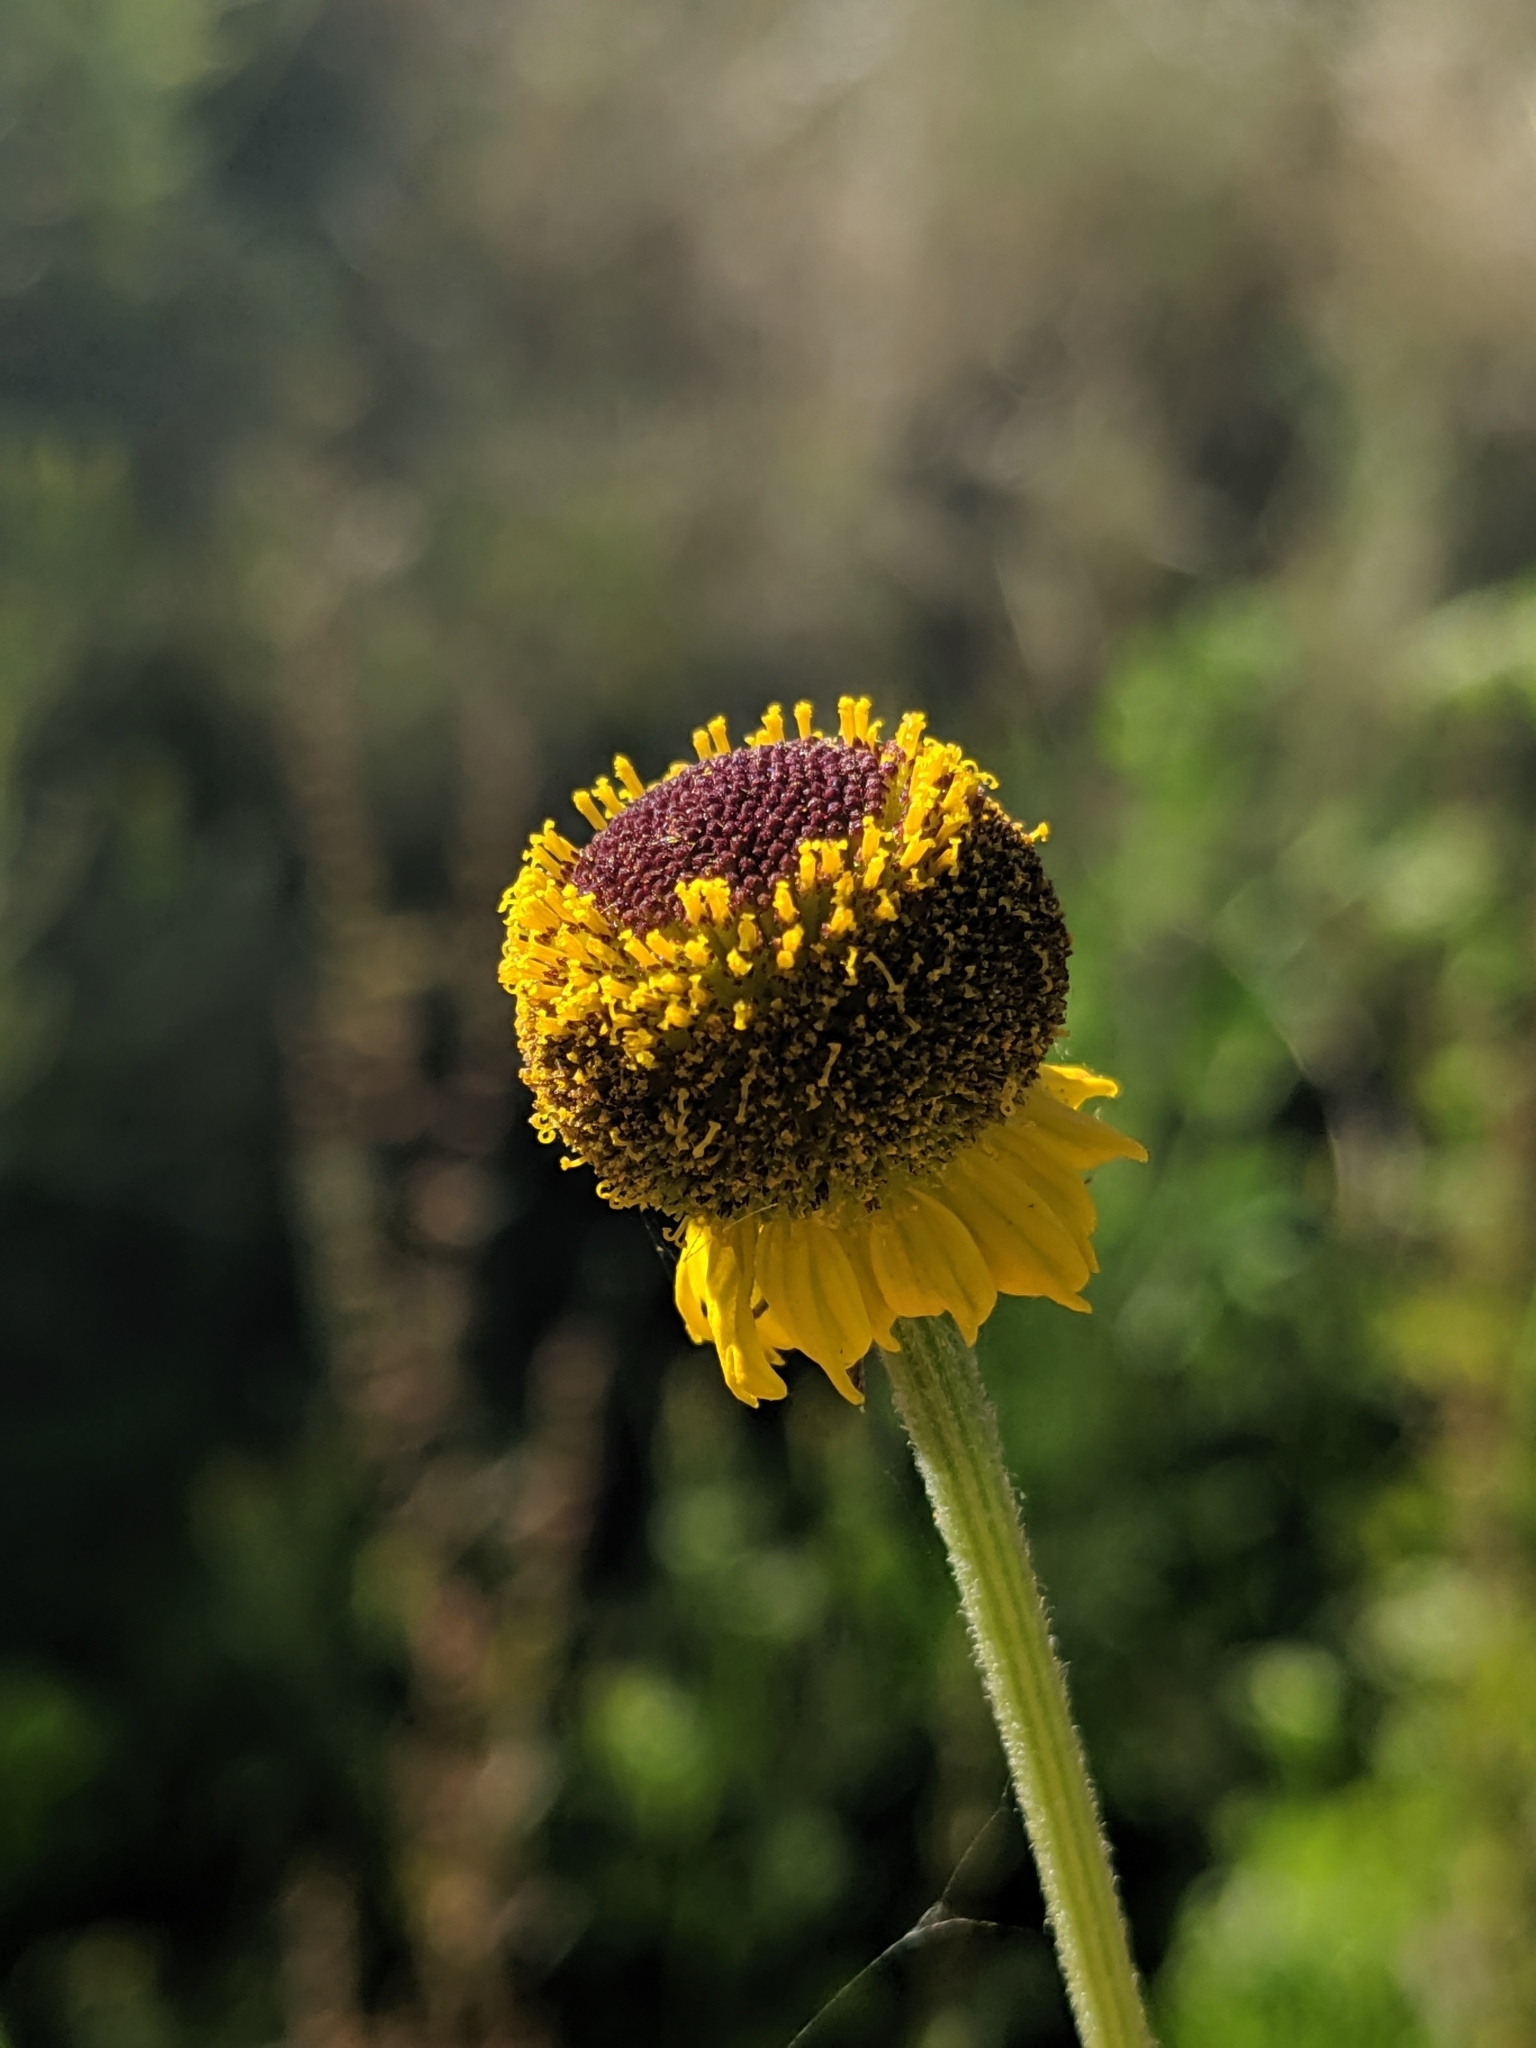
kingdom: Plantae
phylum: Tracheophyta
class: Magnoliopsida
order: Asterales
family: Asteraceae
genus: Helenium
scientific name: Helenium puberulum
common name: Sneezewort
